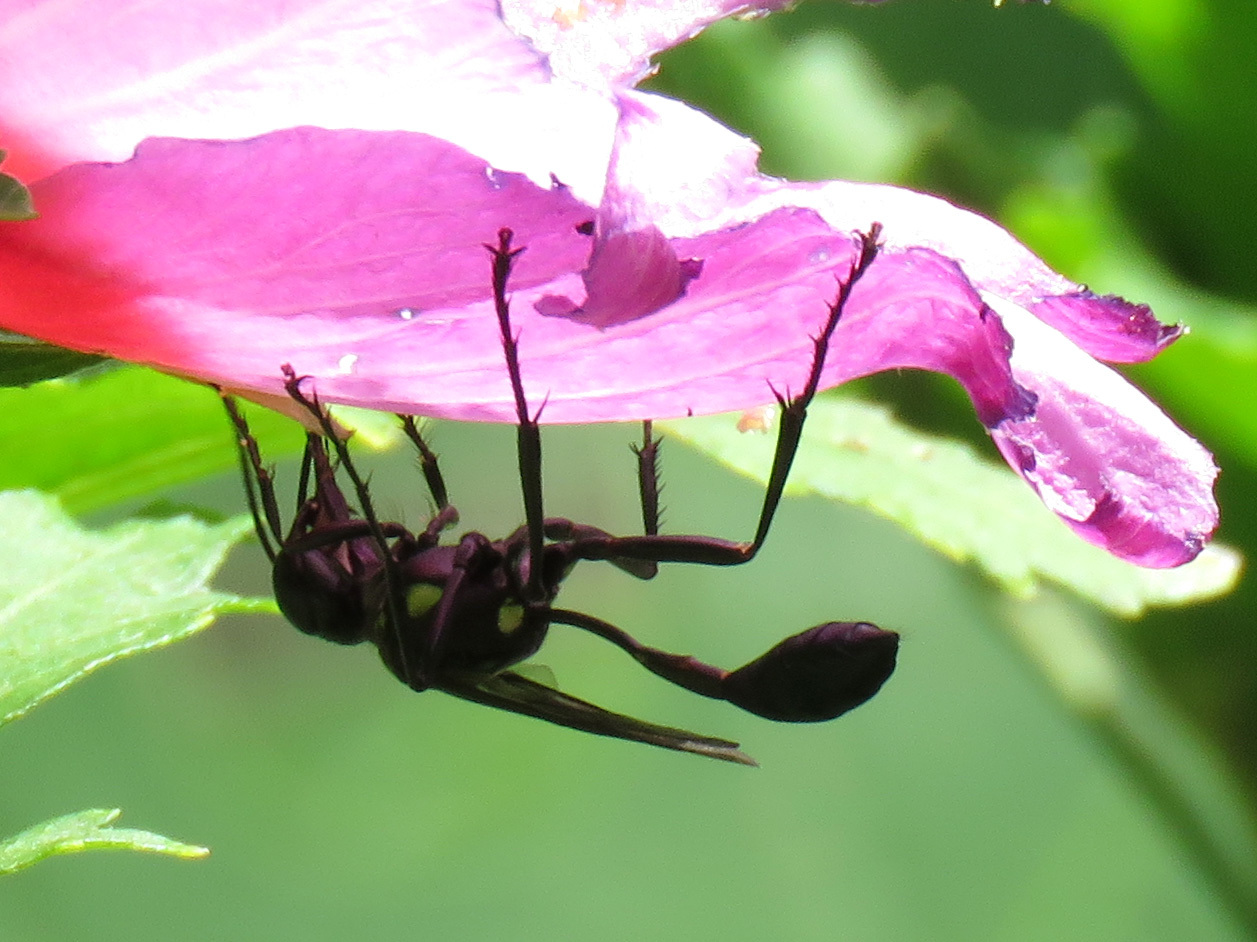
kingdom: Animalia
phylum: Arthropoda
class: Insecta
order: Hymenoptera
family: Sphecidae
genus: Eremnophila
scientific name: Eremnophila aureonotata
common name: Gold-marked thread-waisted wasp
